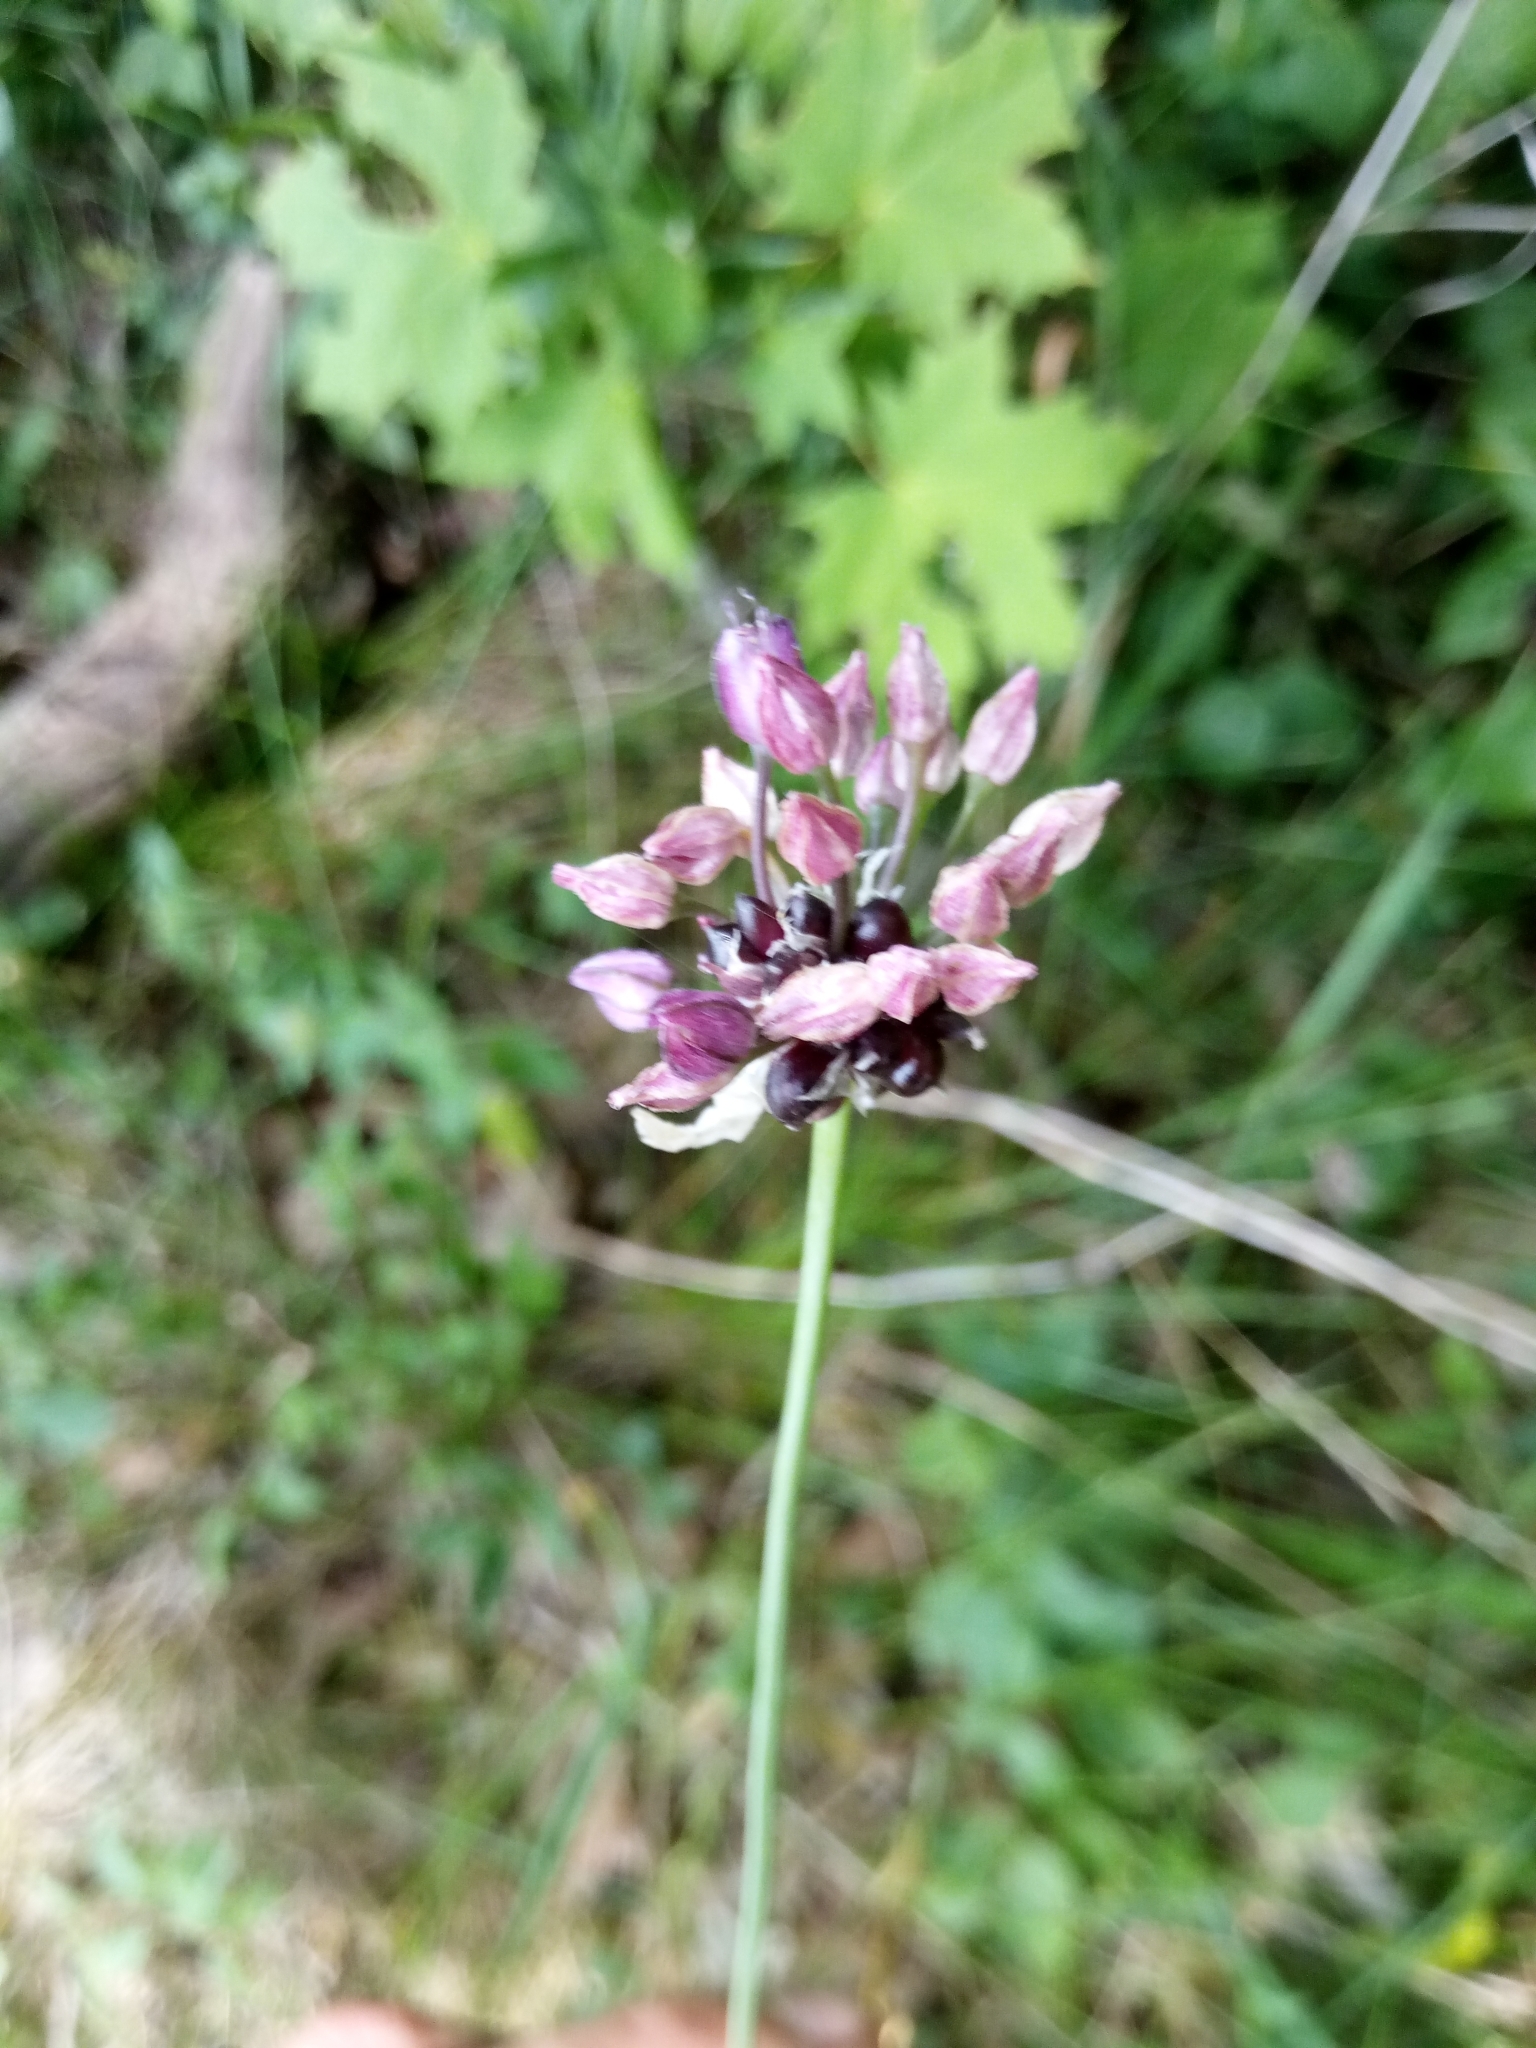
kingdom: Plantae
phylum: Tracheophyta
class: Liliopsida
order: Asparagales
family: Amaryllidaceae
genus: Allium
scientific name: Allium scorodoprasum
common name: Sand leek
